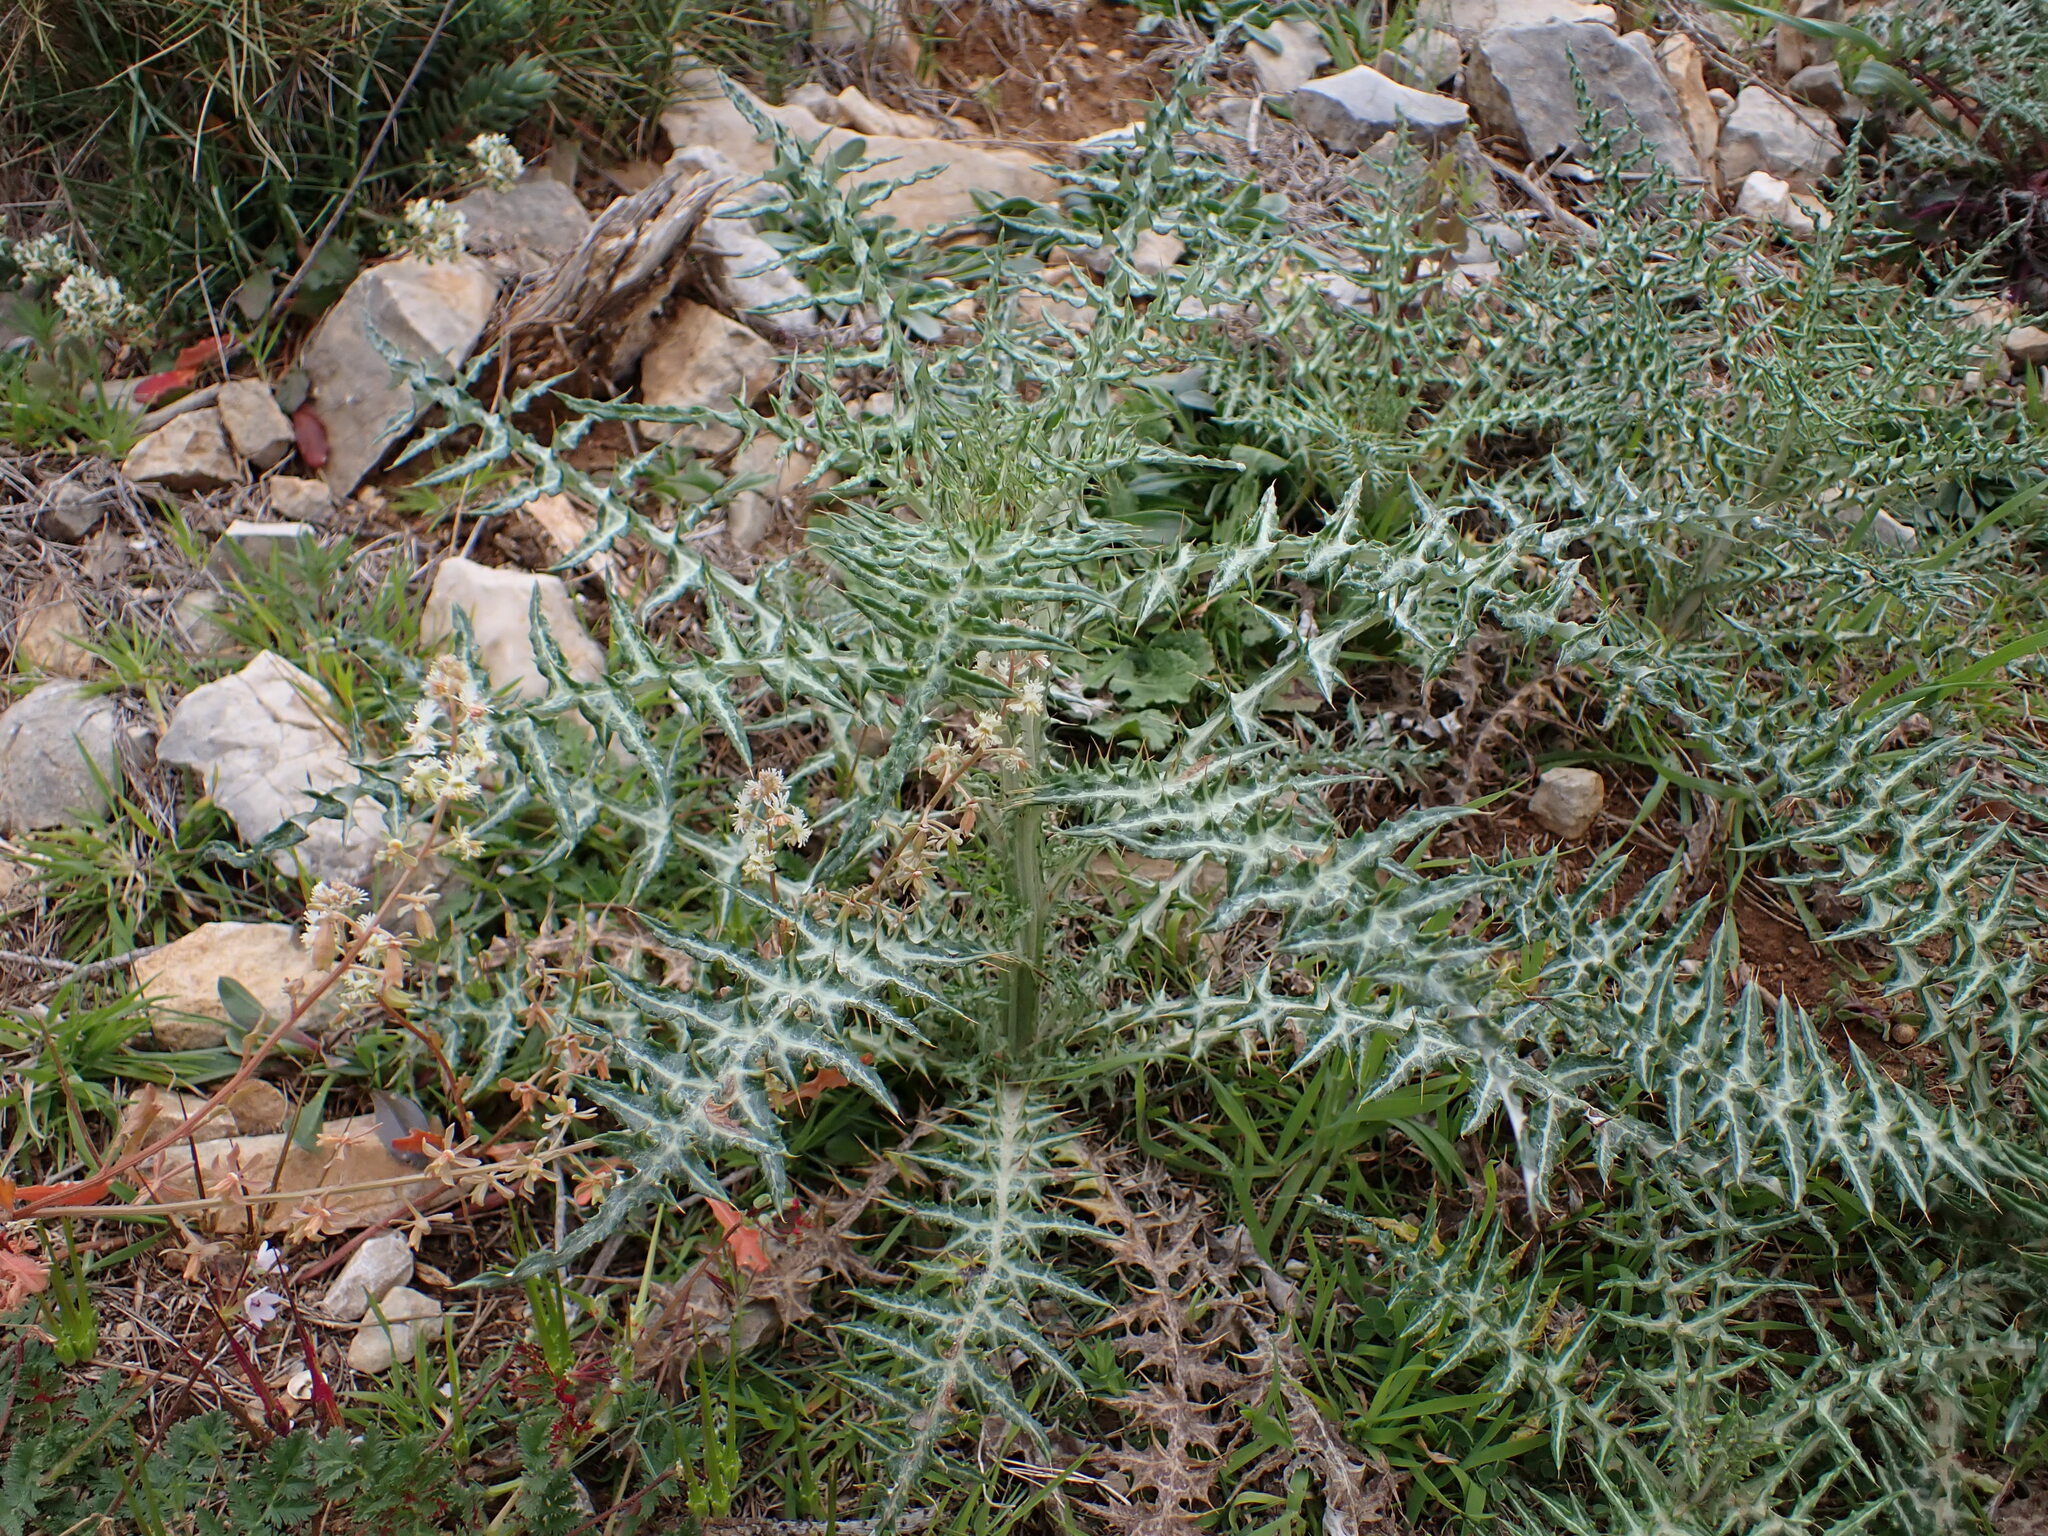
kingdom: Plantae
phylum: Tracheophyta
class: Magnoliopsida
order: Asterales
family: Asteraceae
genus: Galactites
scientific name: Galactites tomentosa
